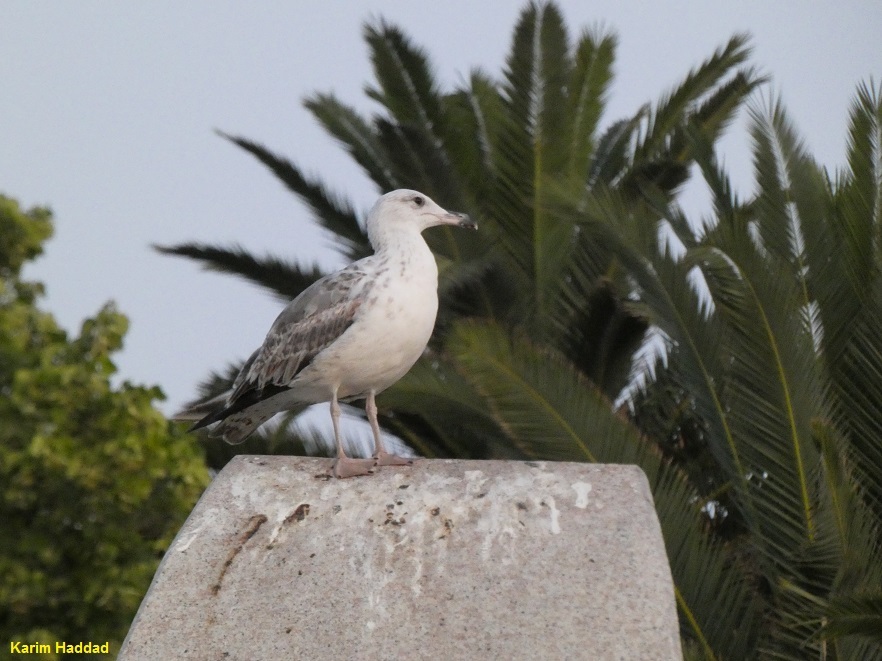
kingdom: Animalia
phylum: Chordata
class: Aves
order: Charadriiformes
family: Laridae
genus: Larus
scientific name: Larus michahellis
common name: Yellow-legged gull
